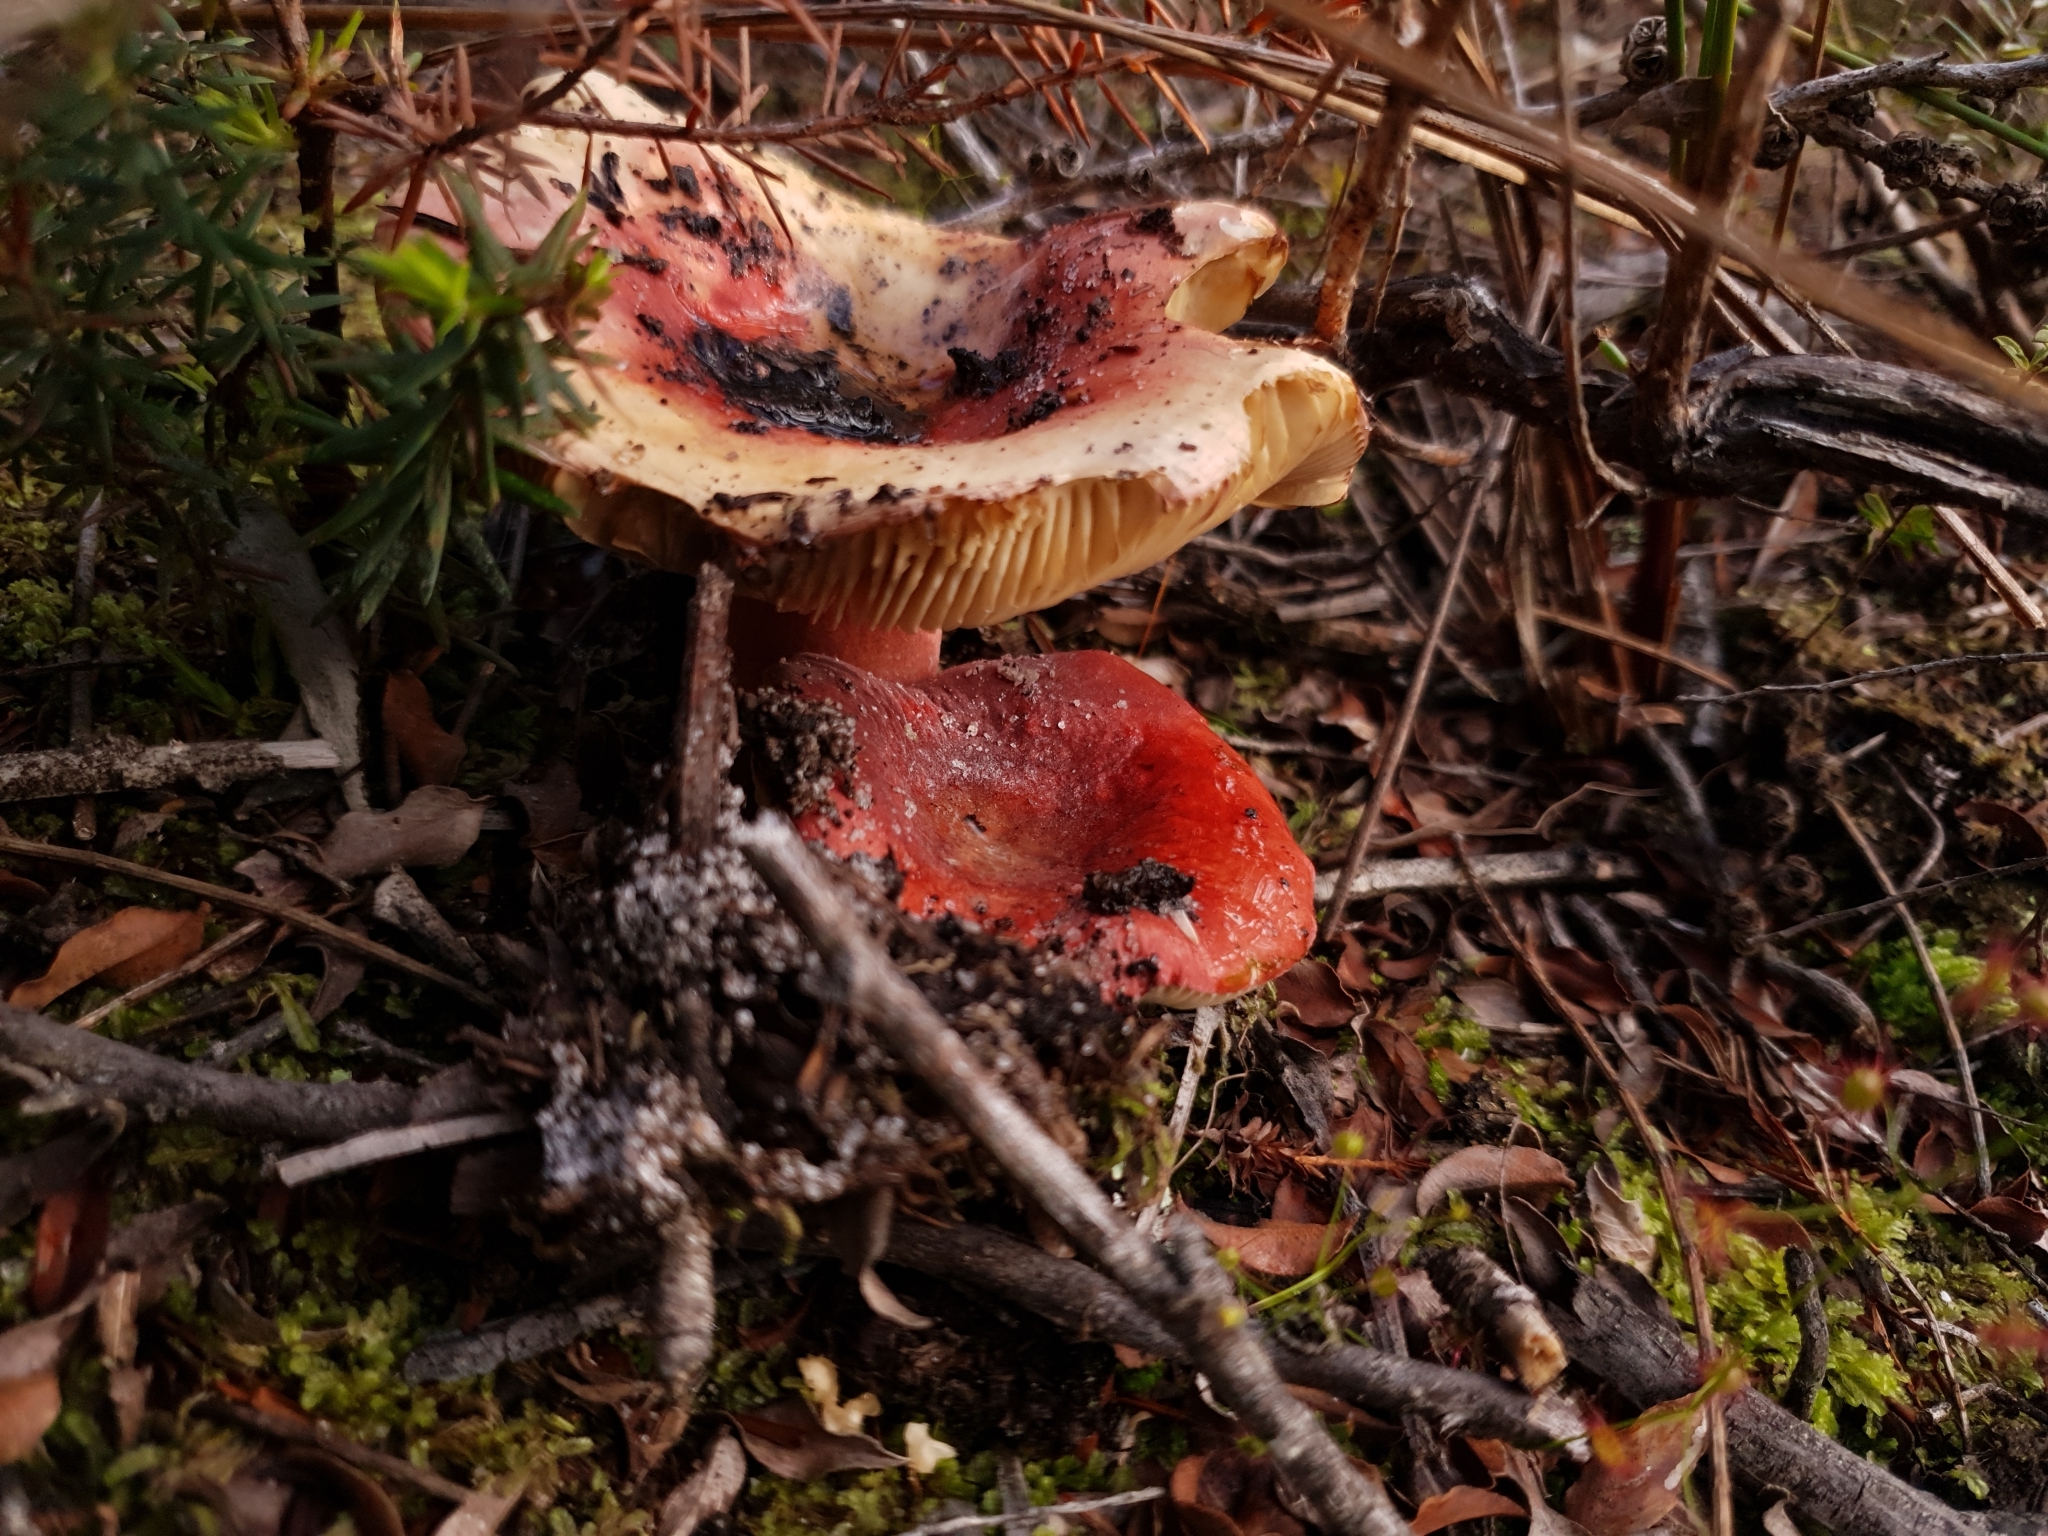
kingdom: Fungi
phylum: Basidiomycota
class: Agaricomycetes
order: Russulales
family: Russulaceae
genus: Russula
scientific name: Russula clelandii
